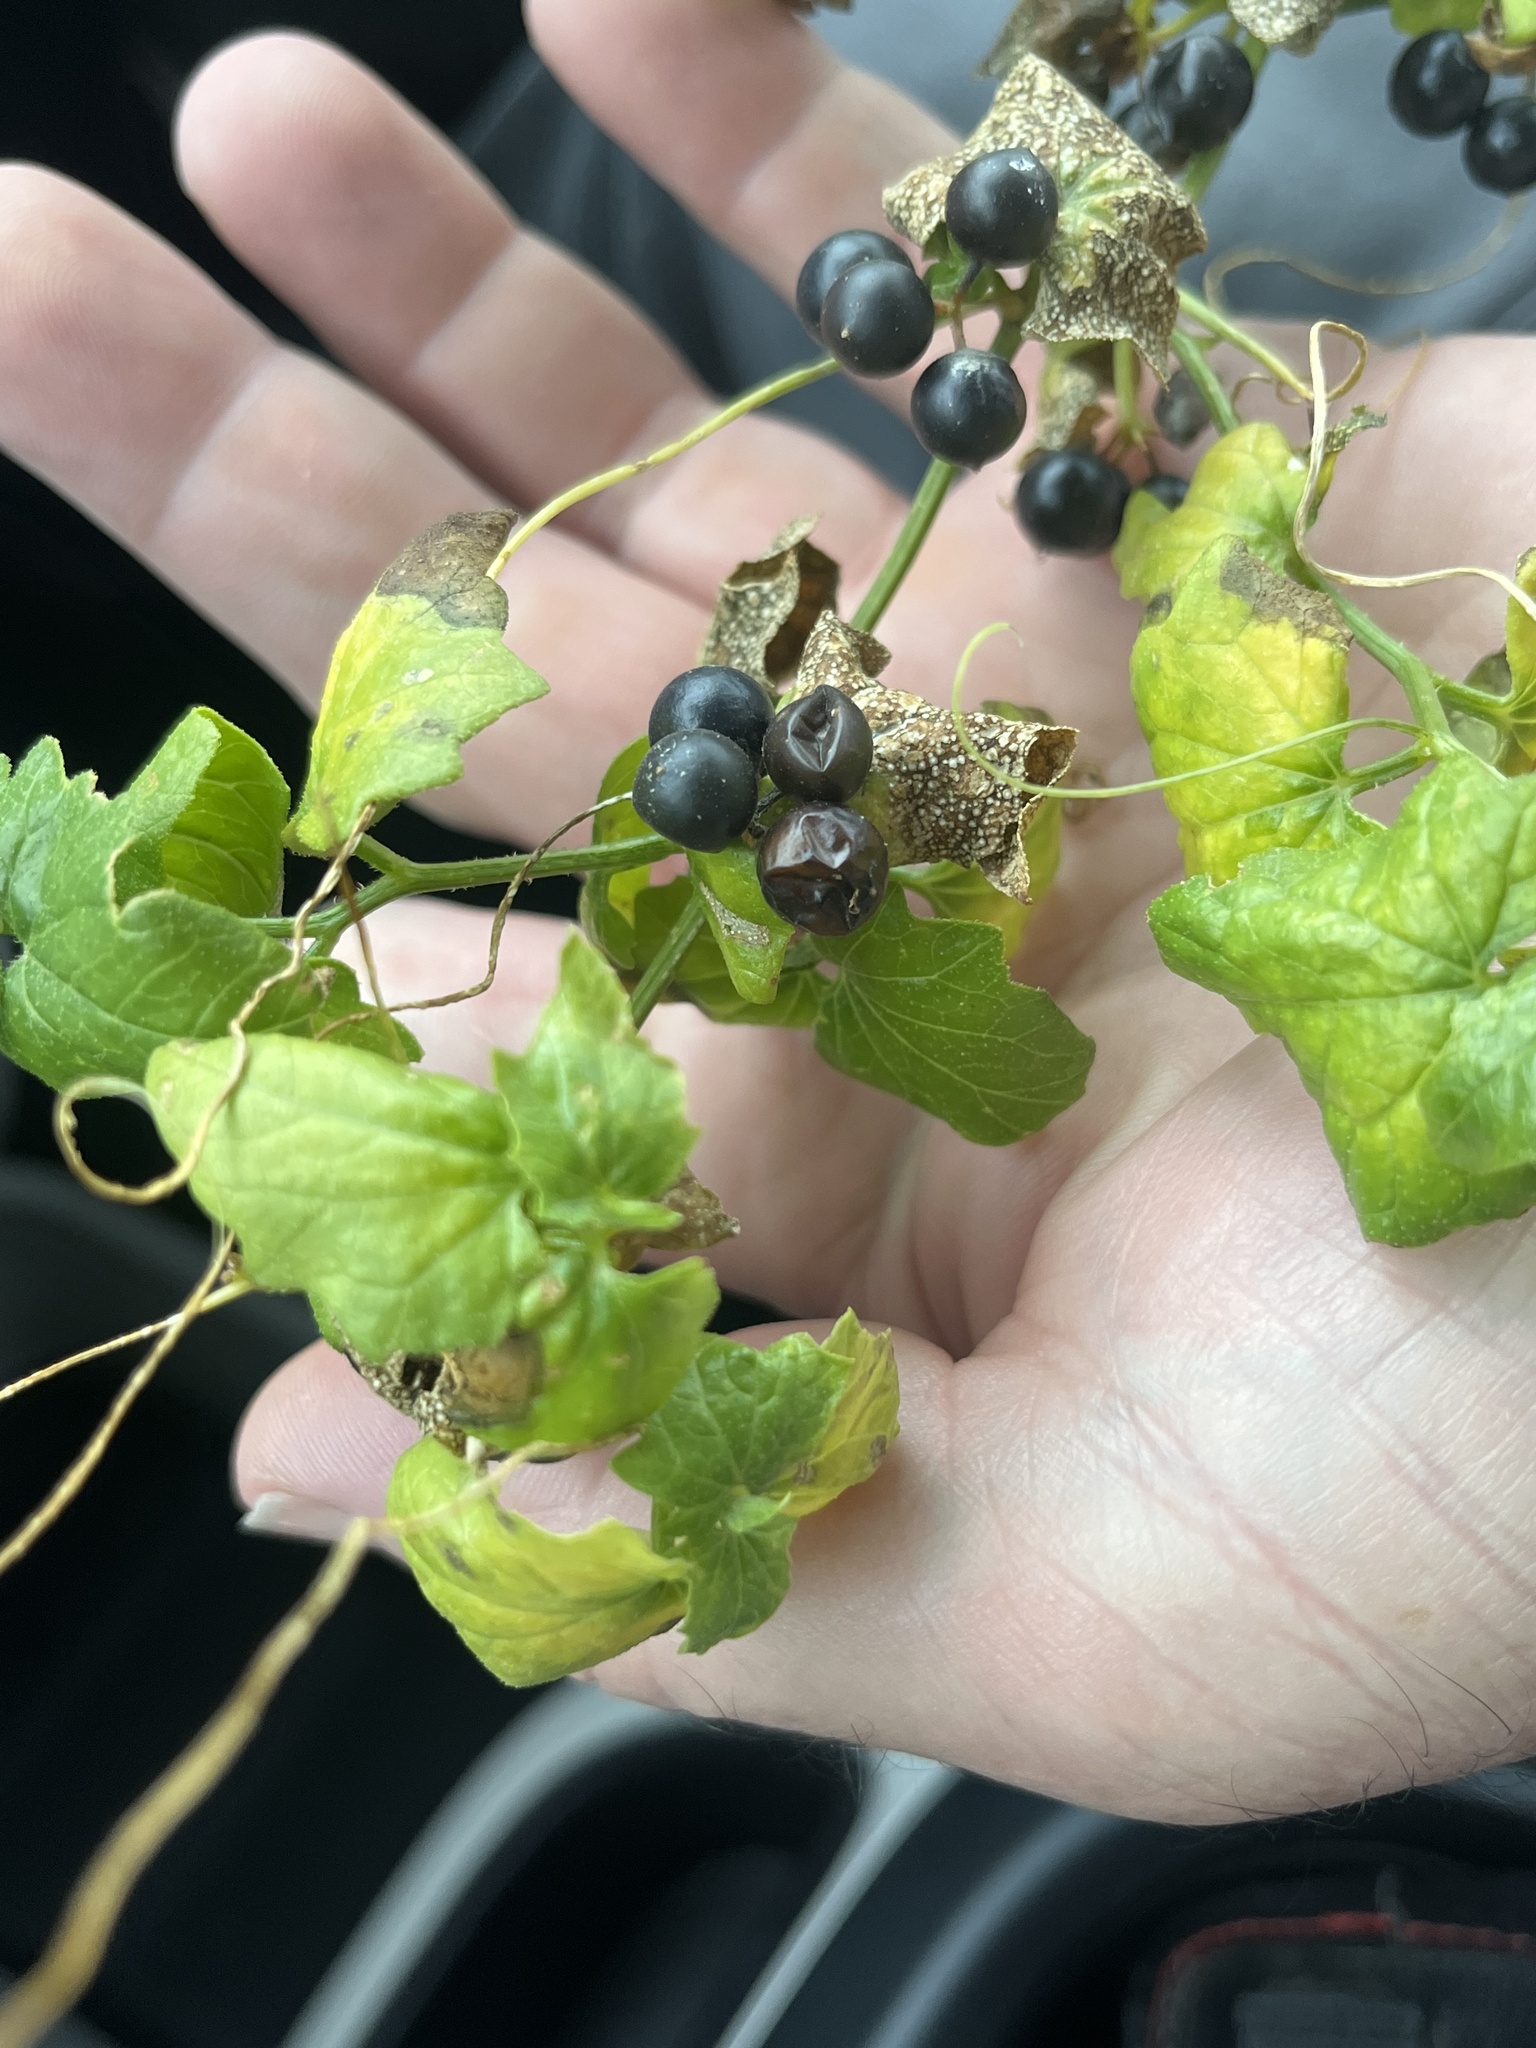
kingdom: Plantae
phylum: Tracheophyta
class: Magnoliopsida
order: Cucurbitales
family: Cucurbitaceae
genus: Bryonia
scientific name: Bryonia alba
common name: White bryony
